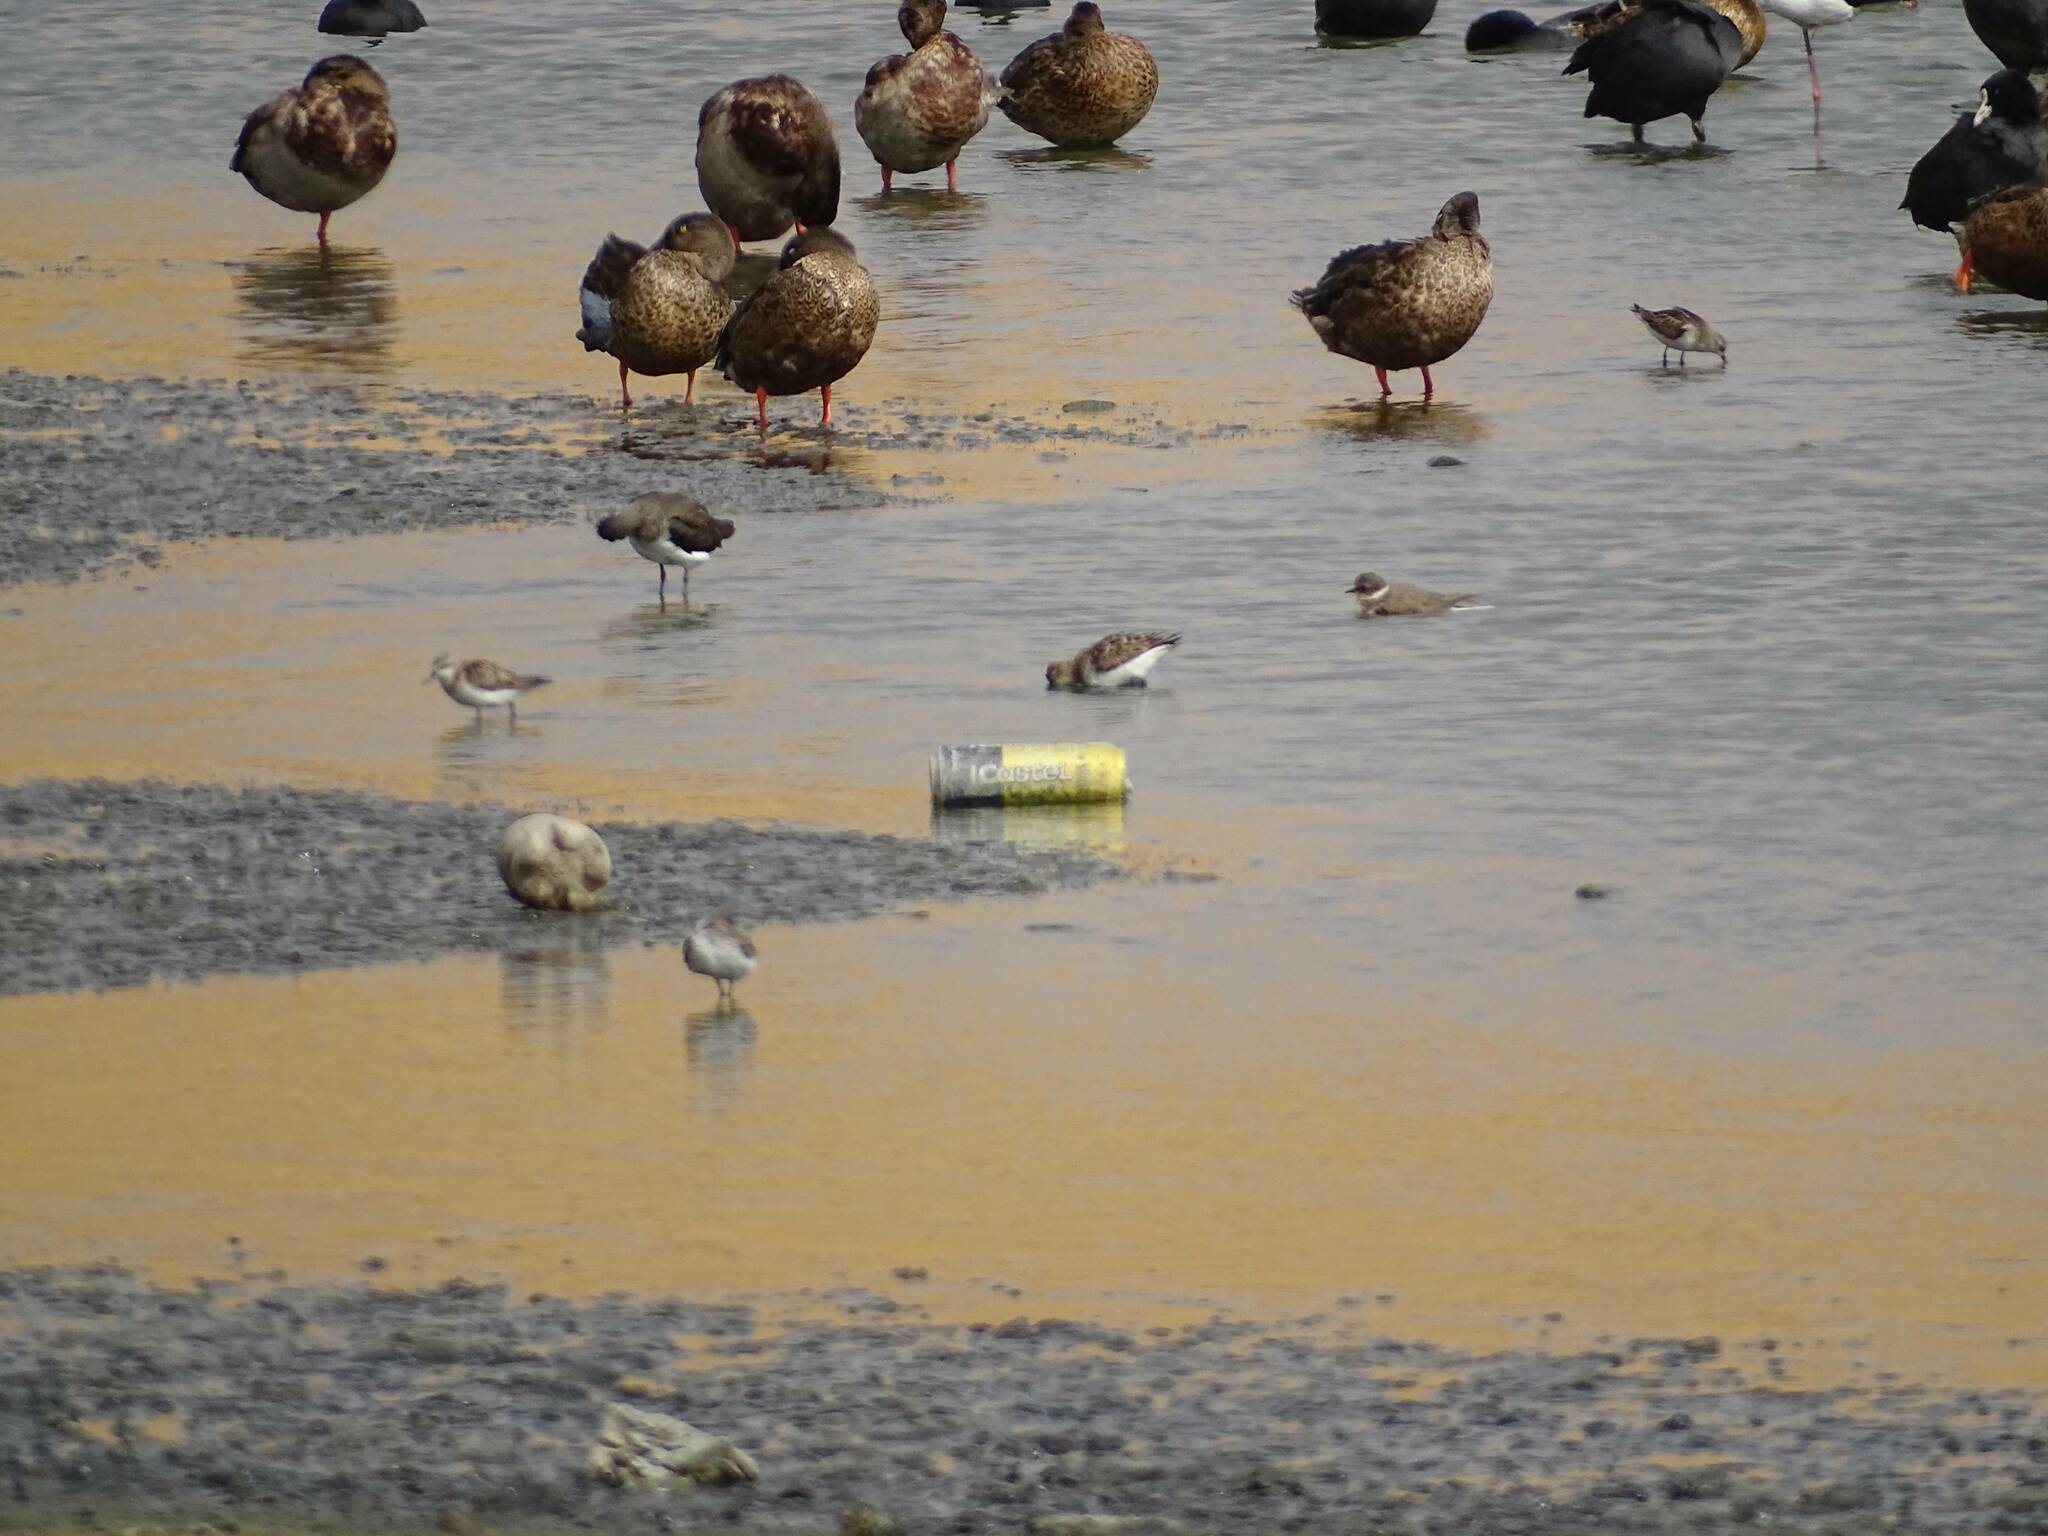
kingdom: Animalia
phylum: Chordata
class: Aves
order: Charadriiformes
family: Charadriidae
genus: Charadrius
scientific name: Charadrius hiaticula
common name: Common ringed plover
